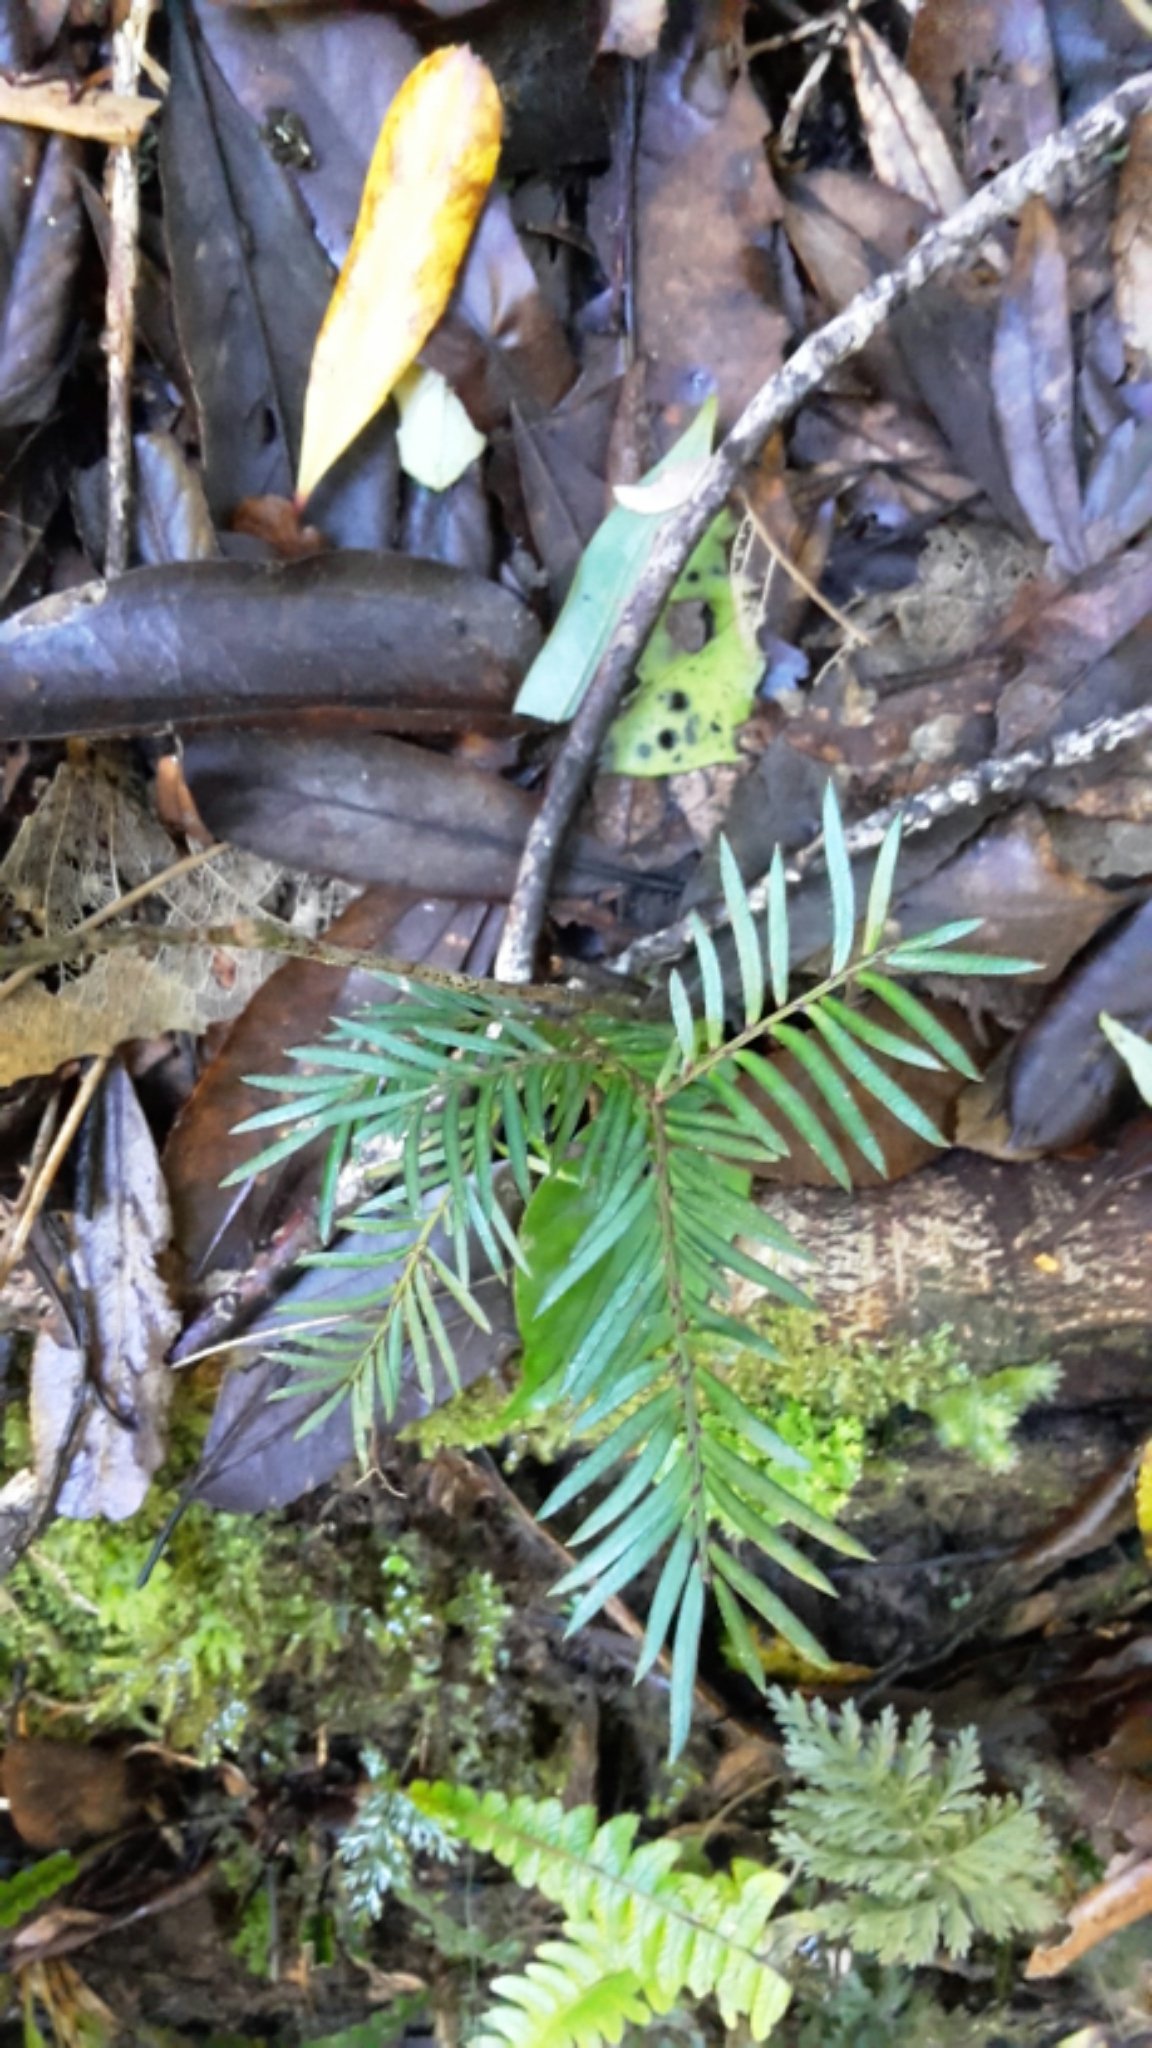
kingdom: Plantae
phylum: Tracheophyta
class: Pinopsida
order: Pinales
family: Podocarpaceae
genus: Prumnopitys
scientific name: Prumnopitys ferruginea
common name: Brown pine
